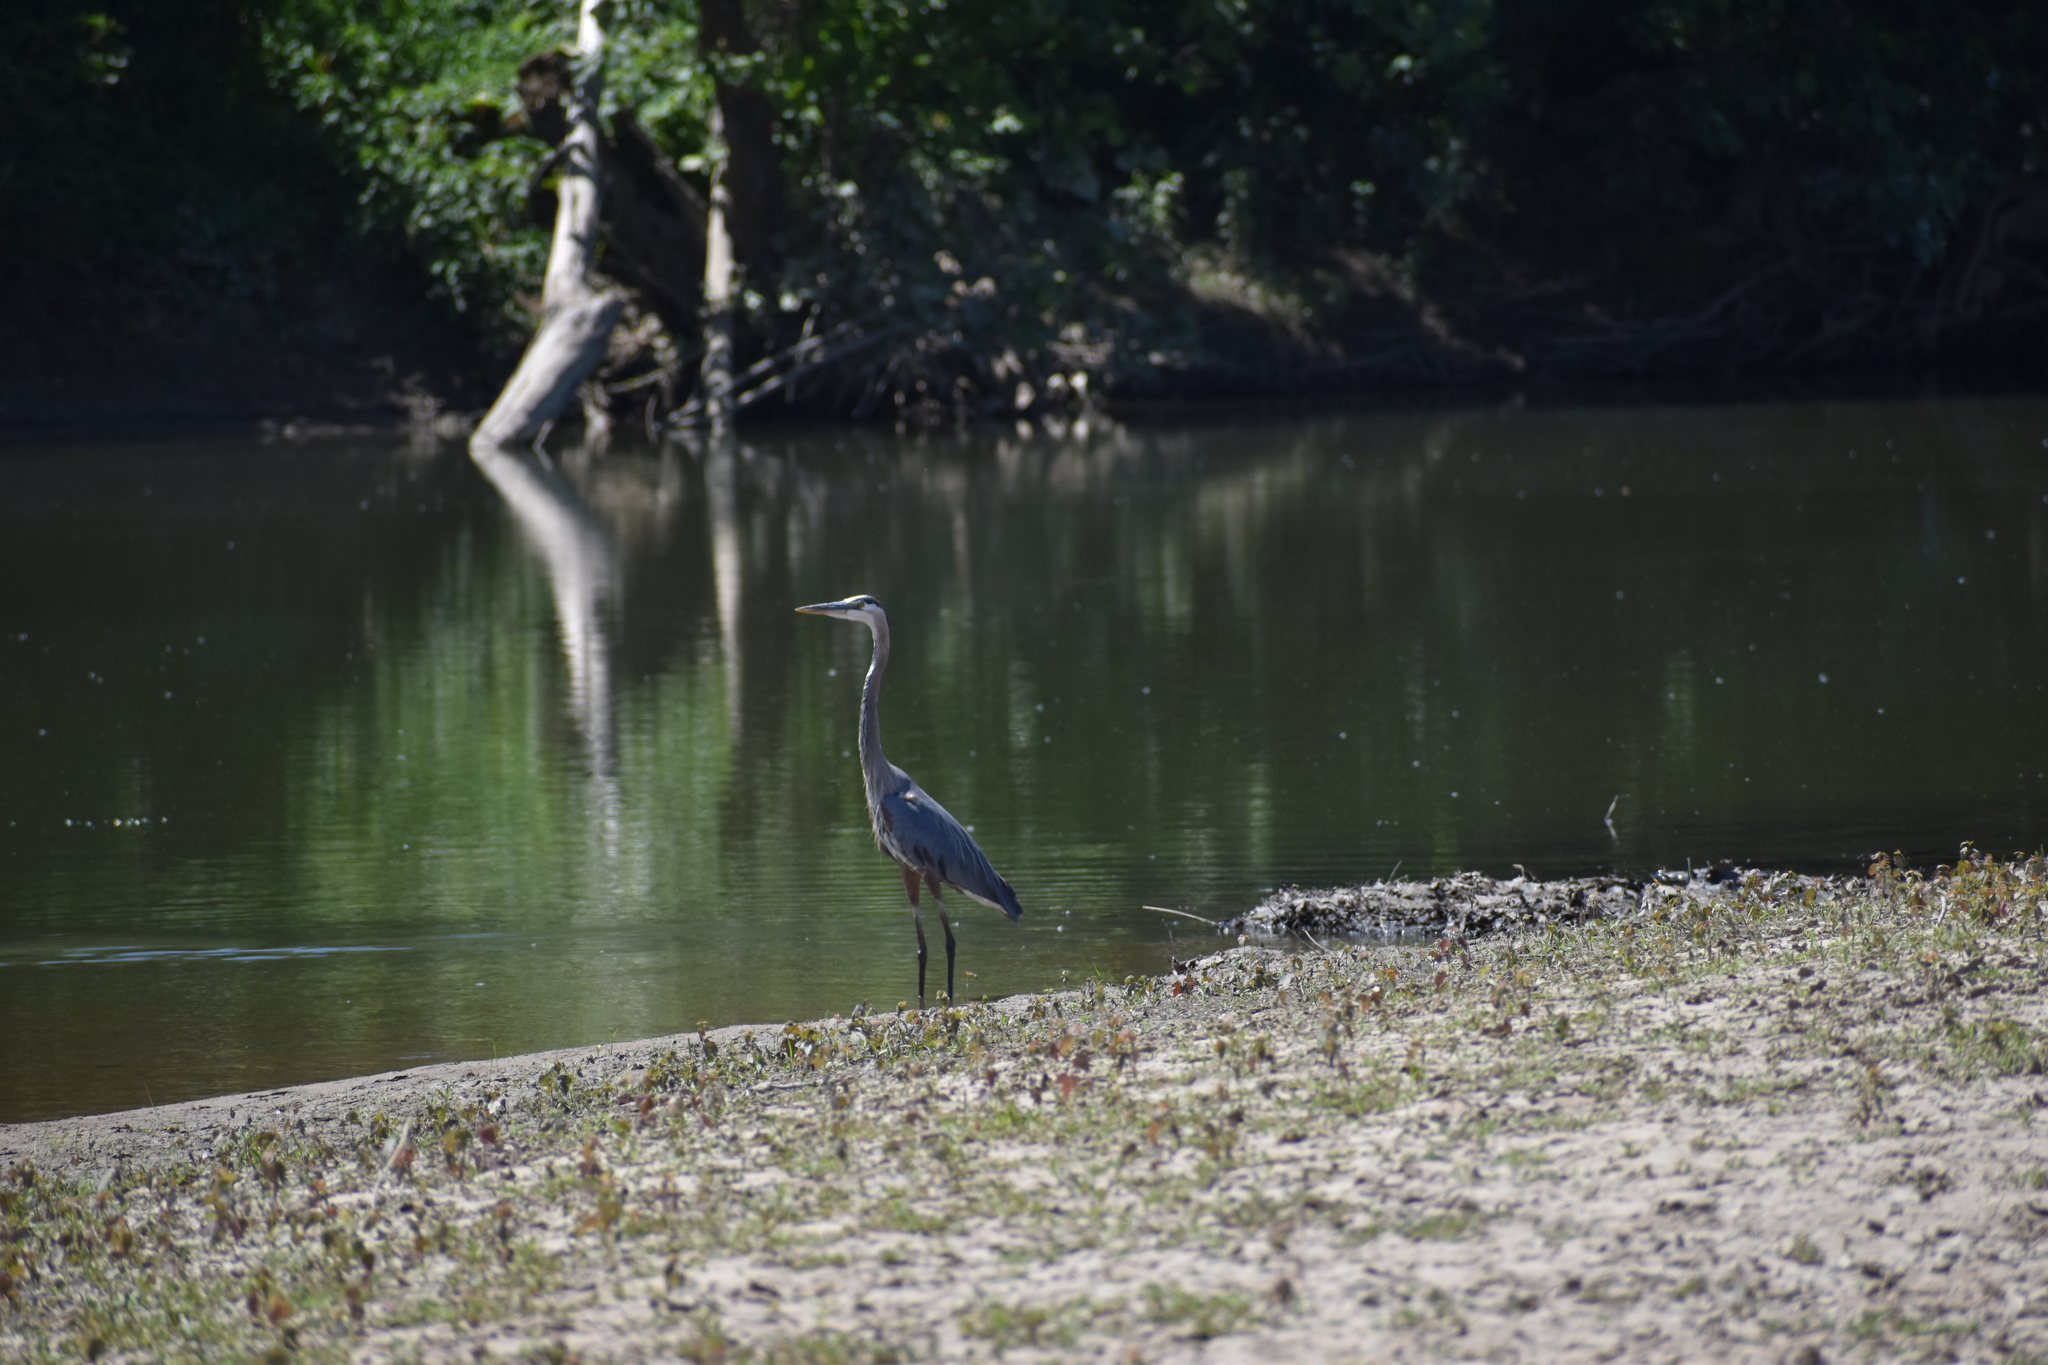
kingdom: Animalia
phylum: Chordata
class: Aves
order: Pelecaniformes
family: Ardeidae
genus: Ardea
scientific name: Ardea herodias
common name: Great blue heron
